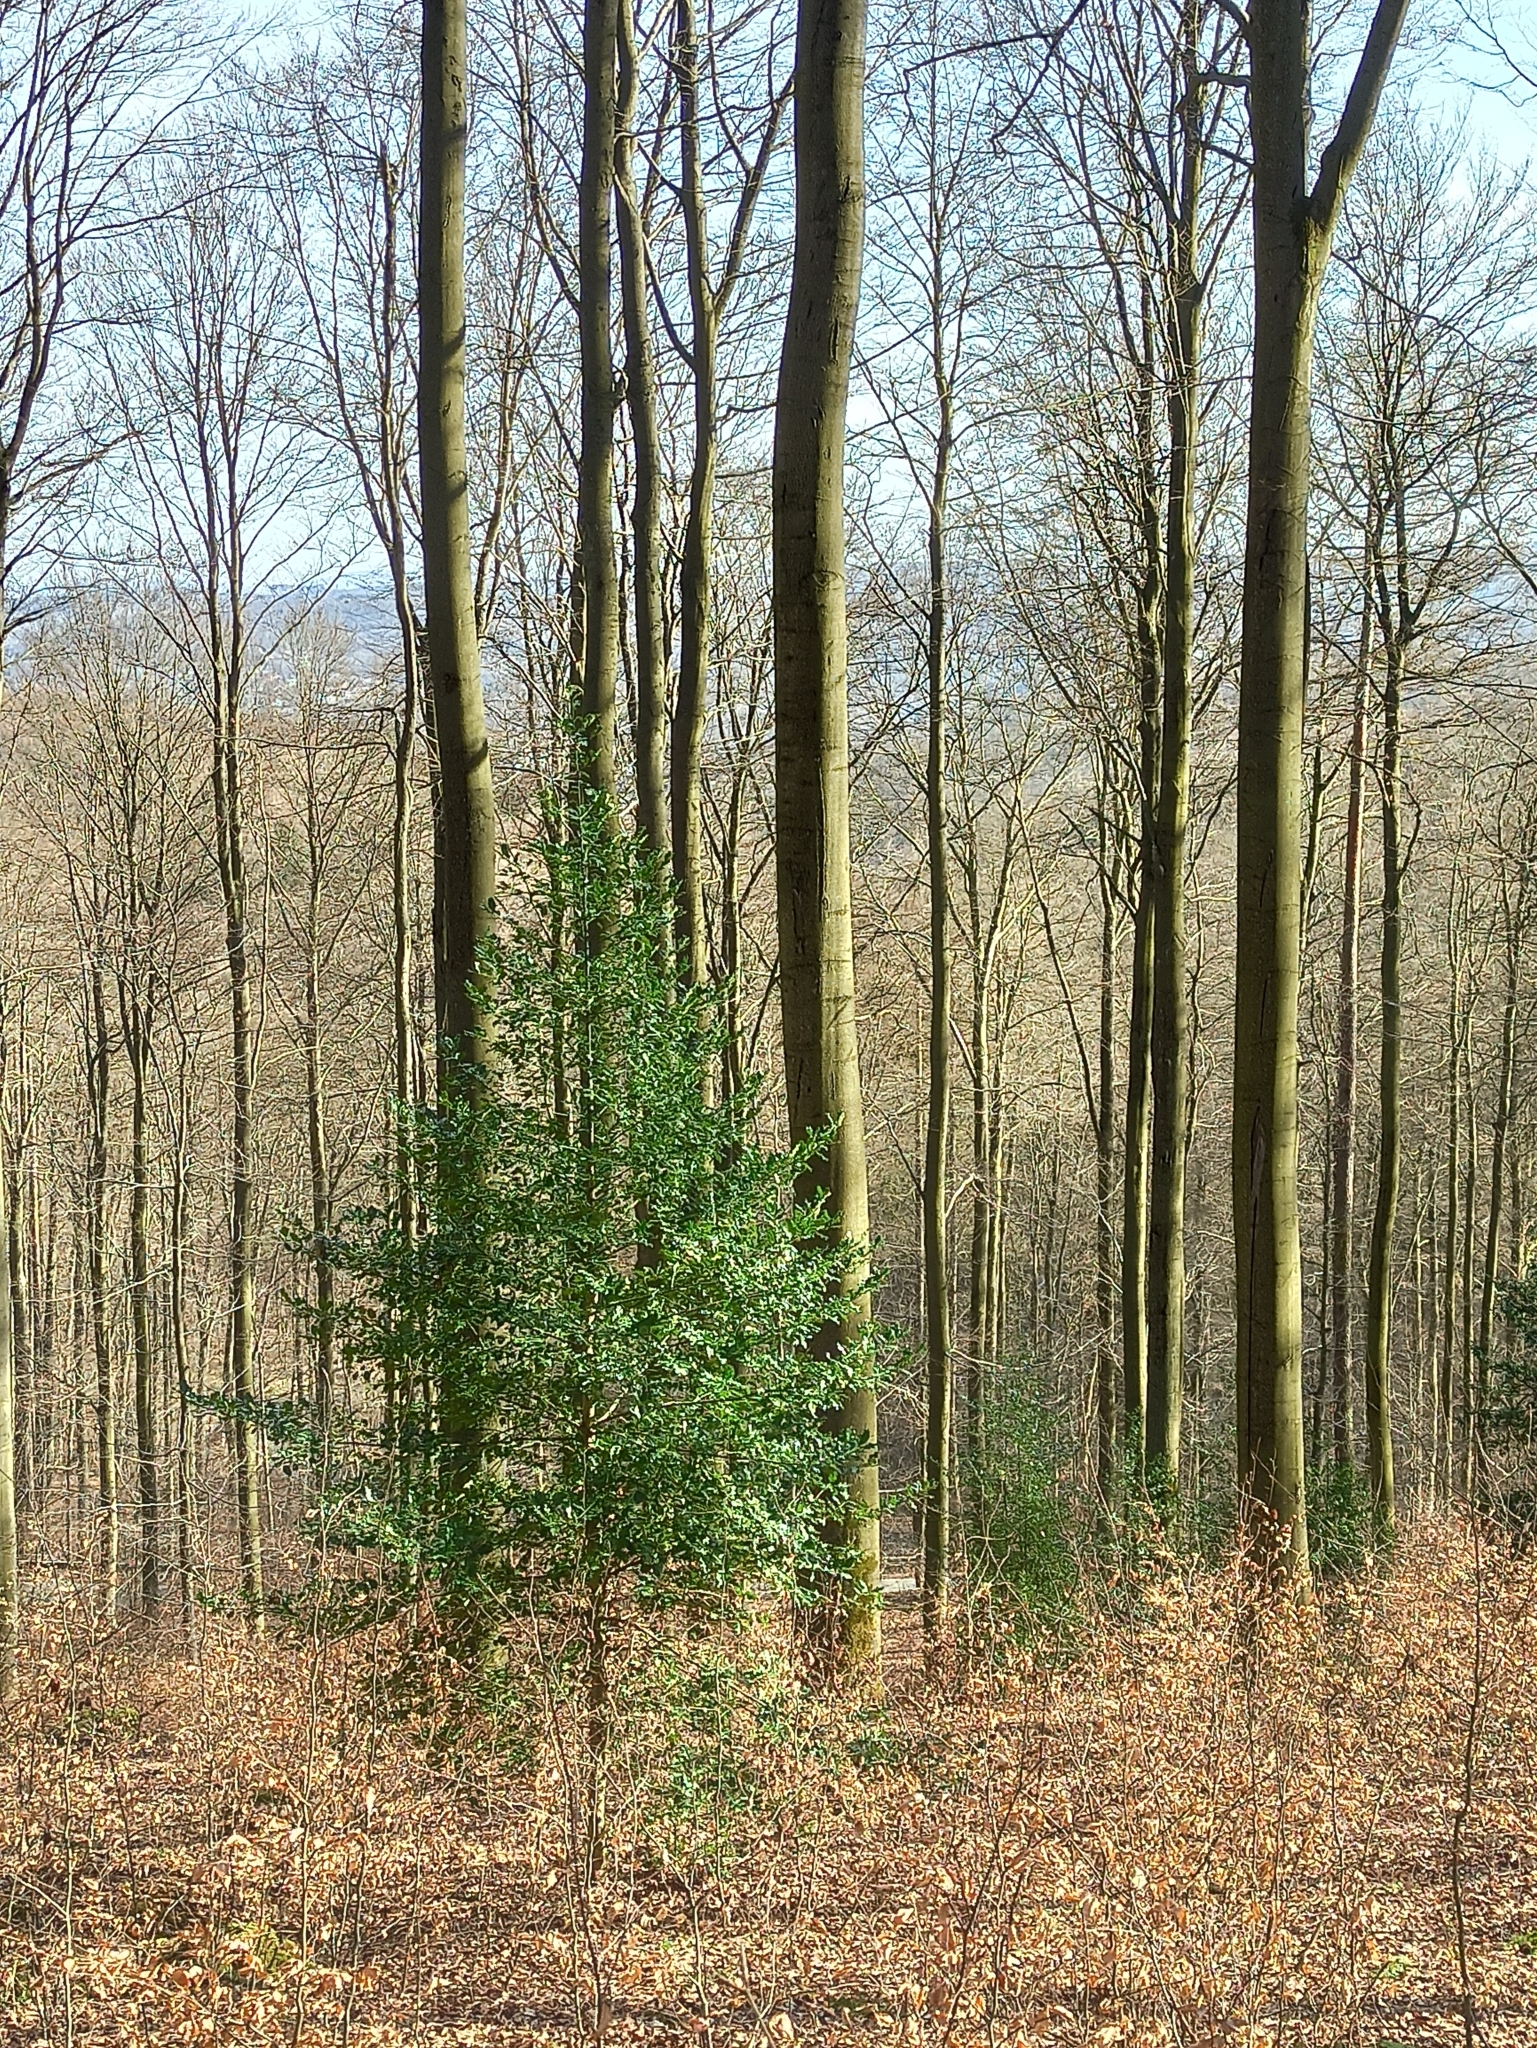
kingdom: Plantae
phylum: Tracheophyta
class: Magnoliopsida
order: Aquifoliales
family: Aquifoliaceae
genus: Ilex
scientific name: Ilex aquifolium
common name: English holly
